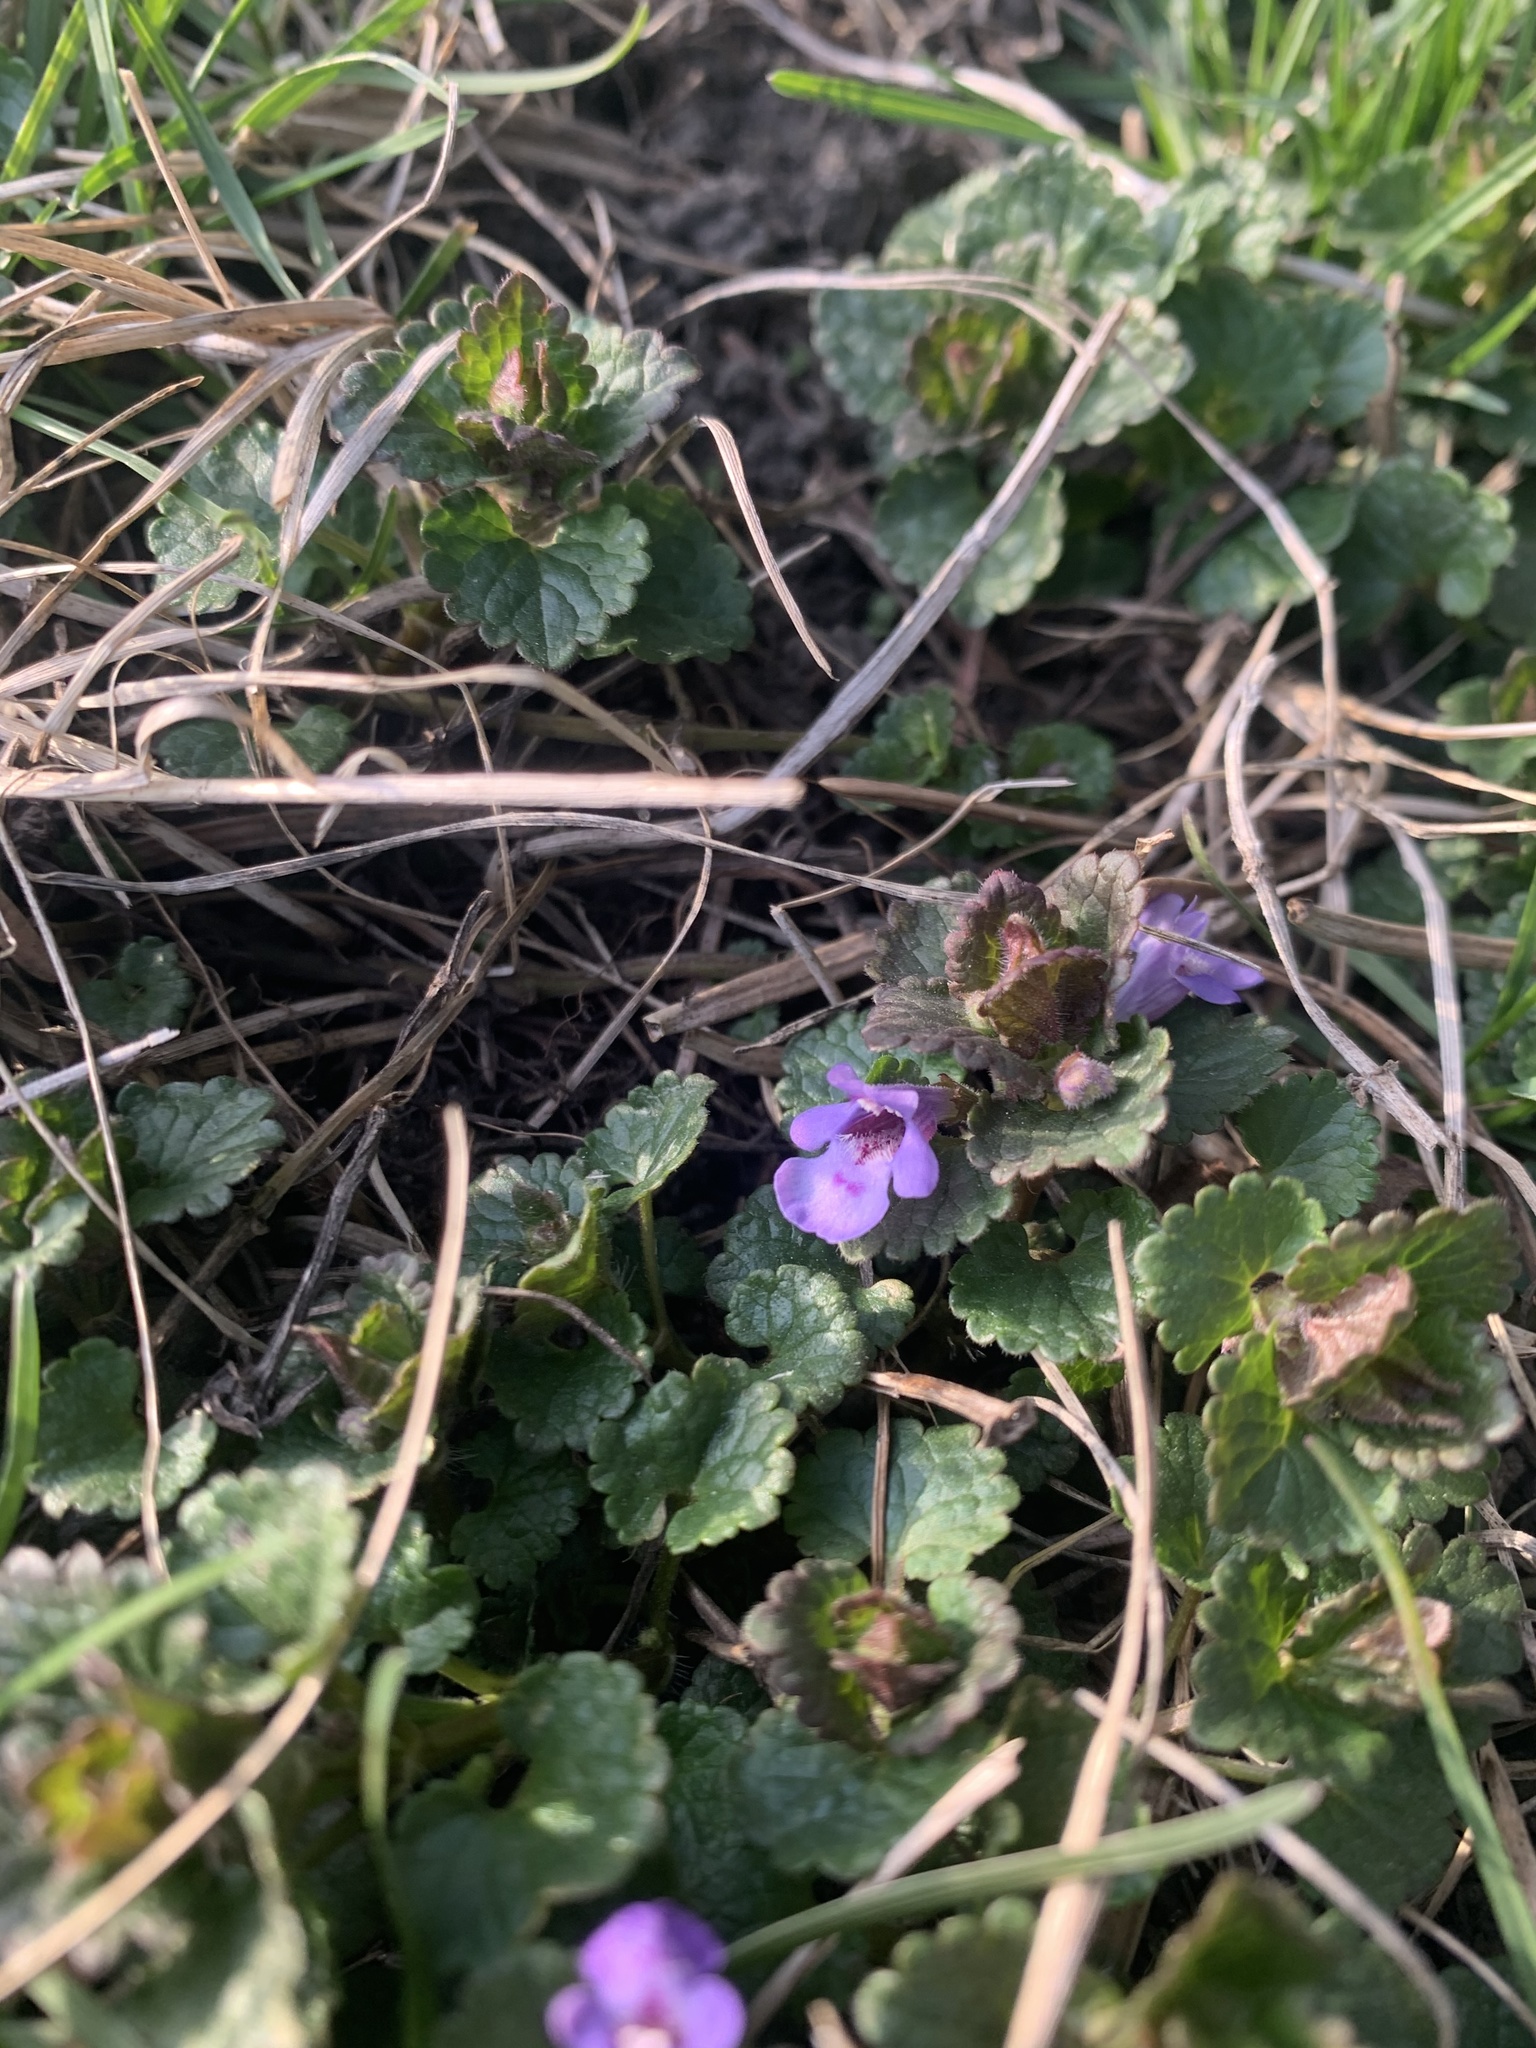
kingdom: Plantae
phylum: Tracheophyta
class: Magnoliopsida
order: Lamiales
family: Lamiaceae
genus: Glechoma
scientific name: Glechoma hederacea
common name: Ground ivy
